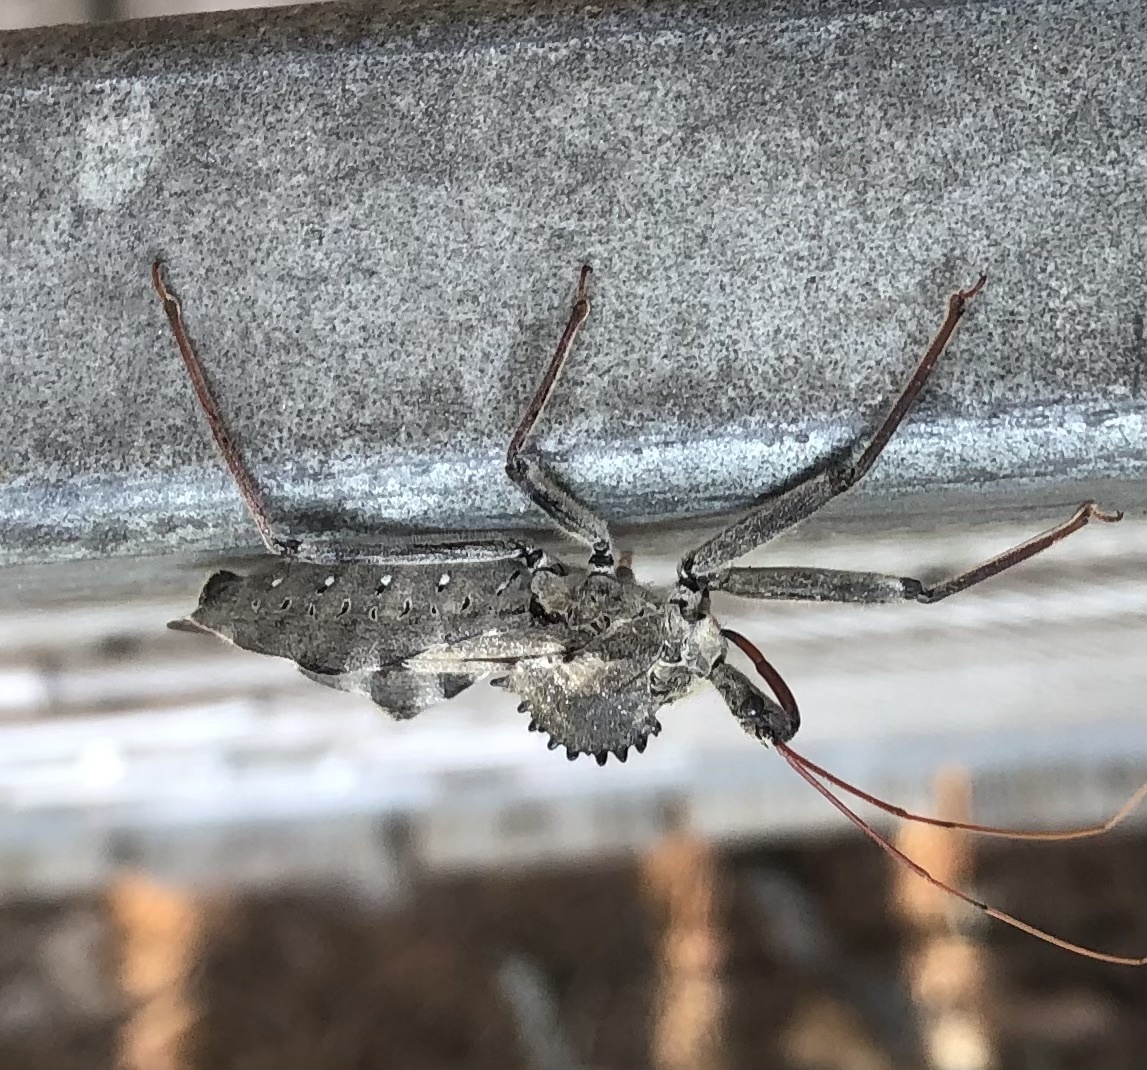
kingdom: Animalia
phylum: Arthropoda
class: Insecta
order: Hemiptera
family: Reduviidae
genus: Arilus
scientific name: Arilus cristatus
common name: North american wheel bug
